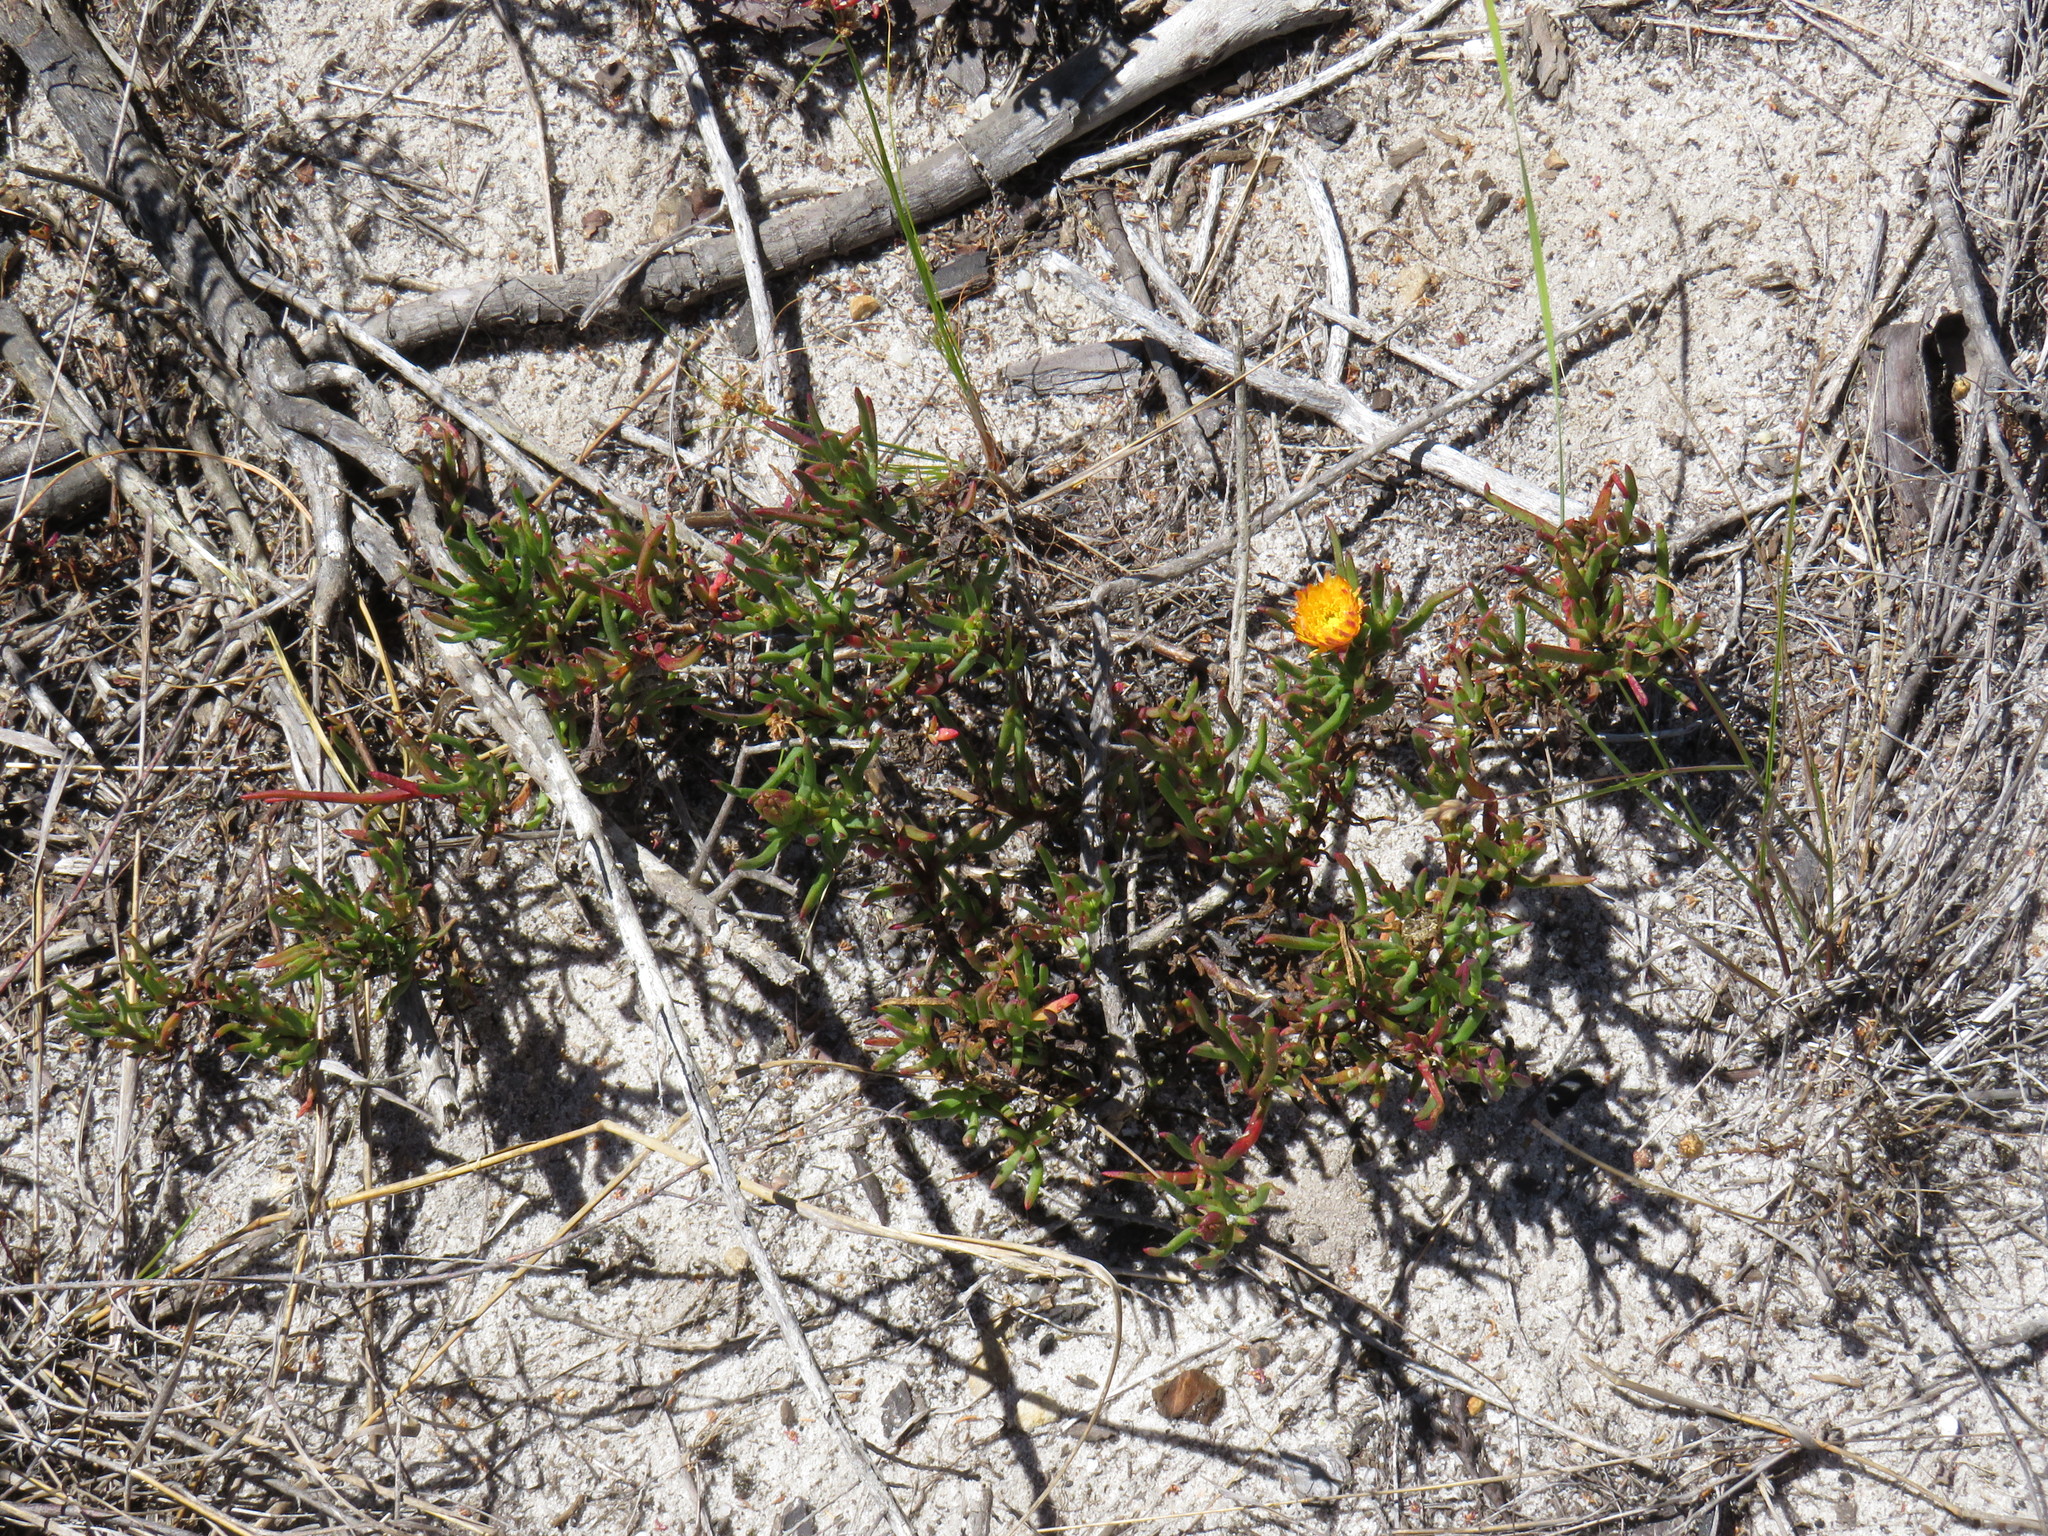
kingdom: Plantae
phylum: Tracheophyta
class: Magnoliopsida
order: Caryophyllales
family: Aizoaceae
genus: Lampranthus
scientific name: Lampranthus bicolor
